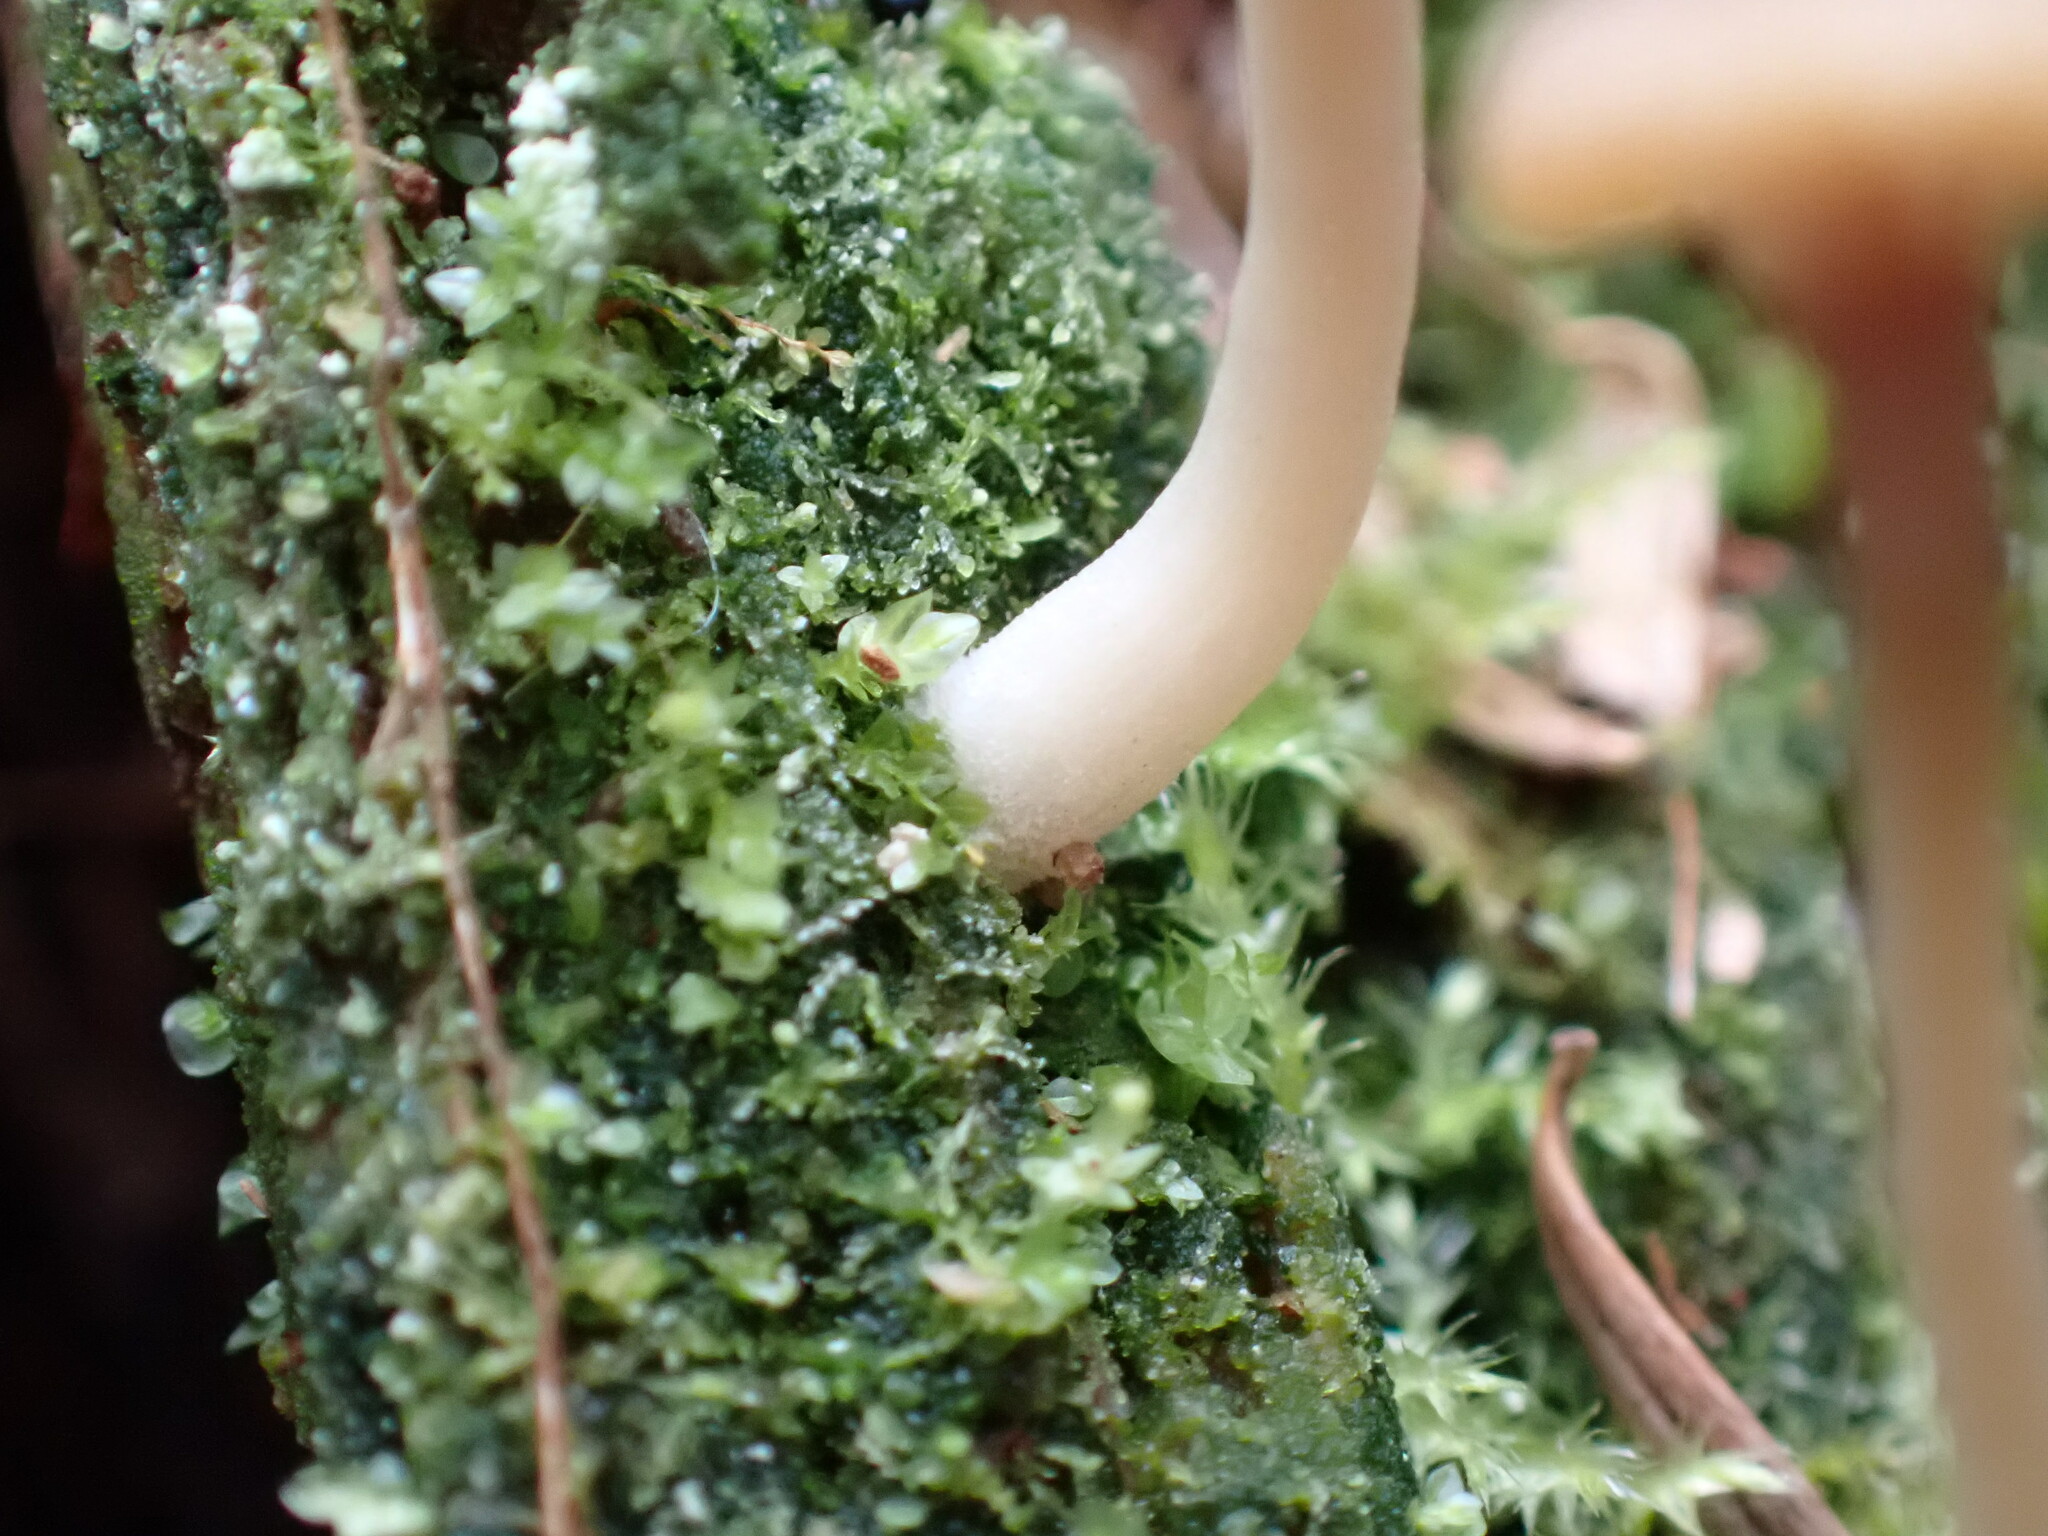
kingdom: Fungi
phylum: Basidiomycota
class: Agaricomycetes
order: Agaricales
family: Hygrophoraceae
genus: Lichenomphalia
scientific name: Lichenomphalia
